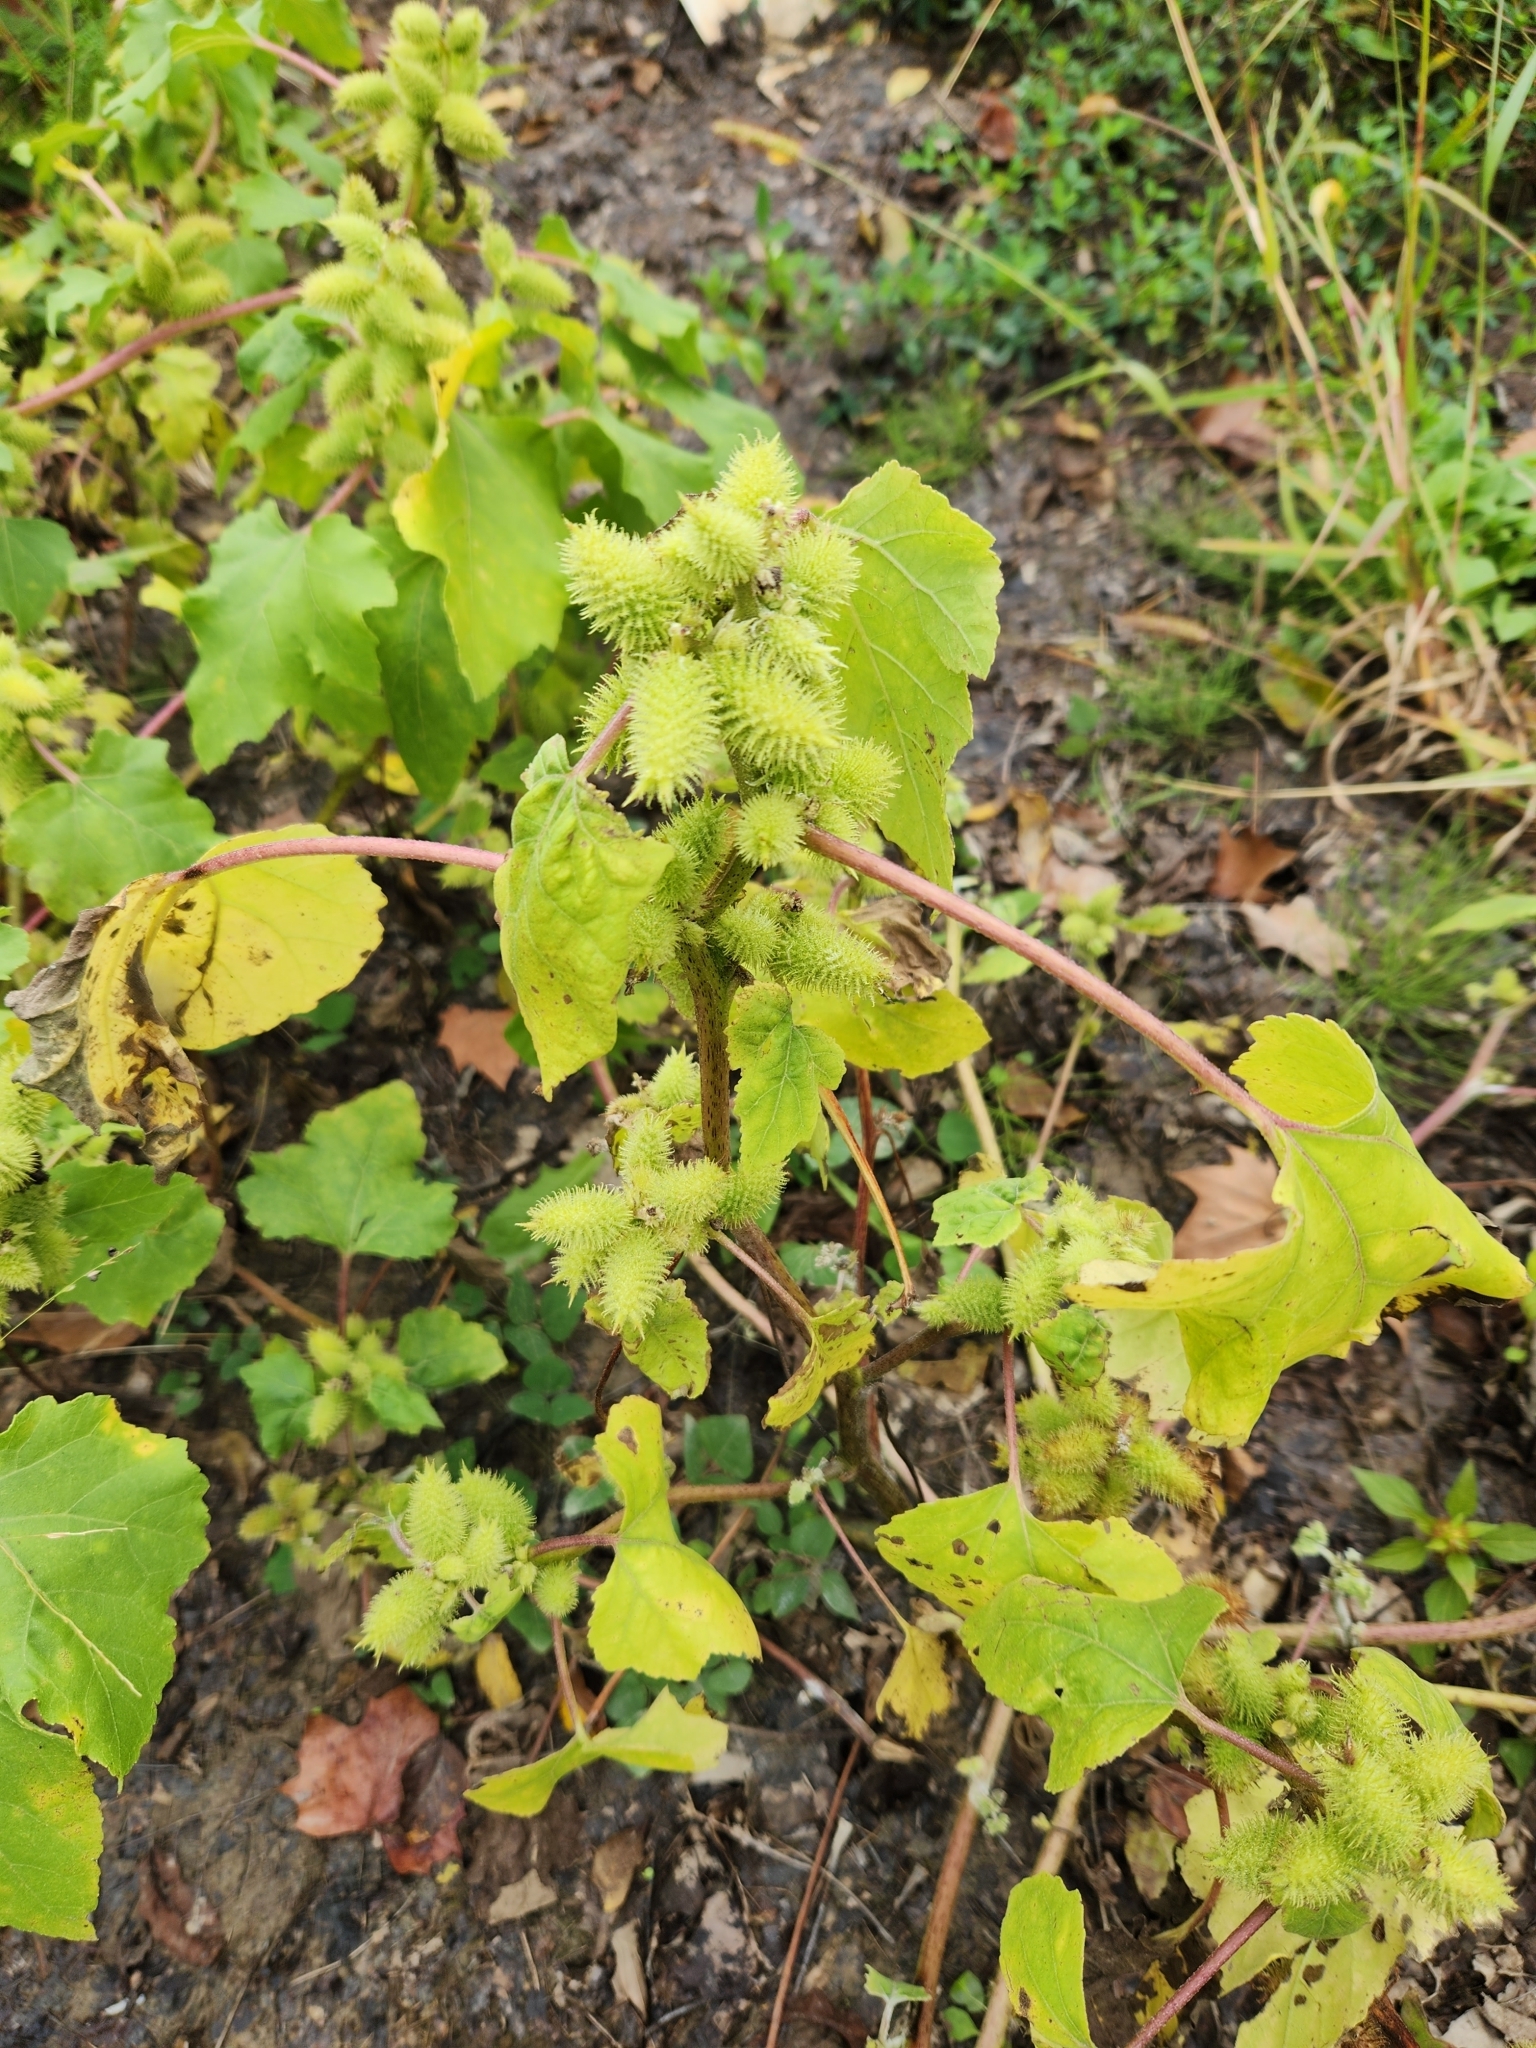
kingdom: Plantae
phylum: Tracheophyta
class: Magnoliopsida
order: Asterales
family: Asteraceae
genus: Xanthium
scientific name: Xanthium strumarium
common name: Rough cocklebur
